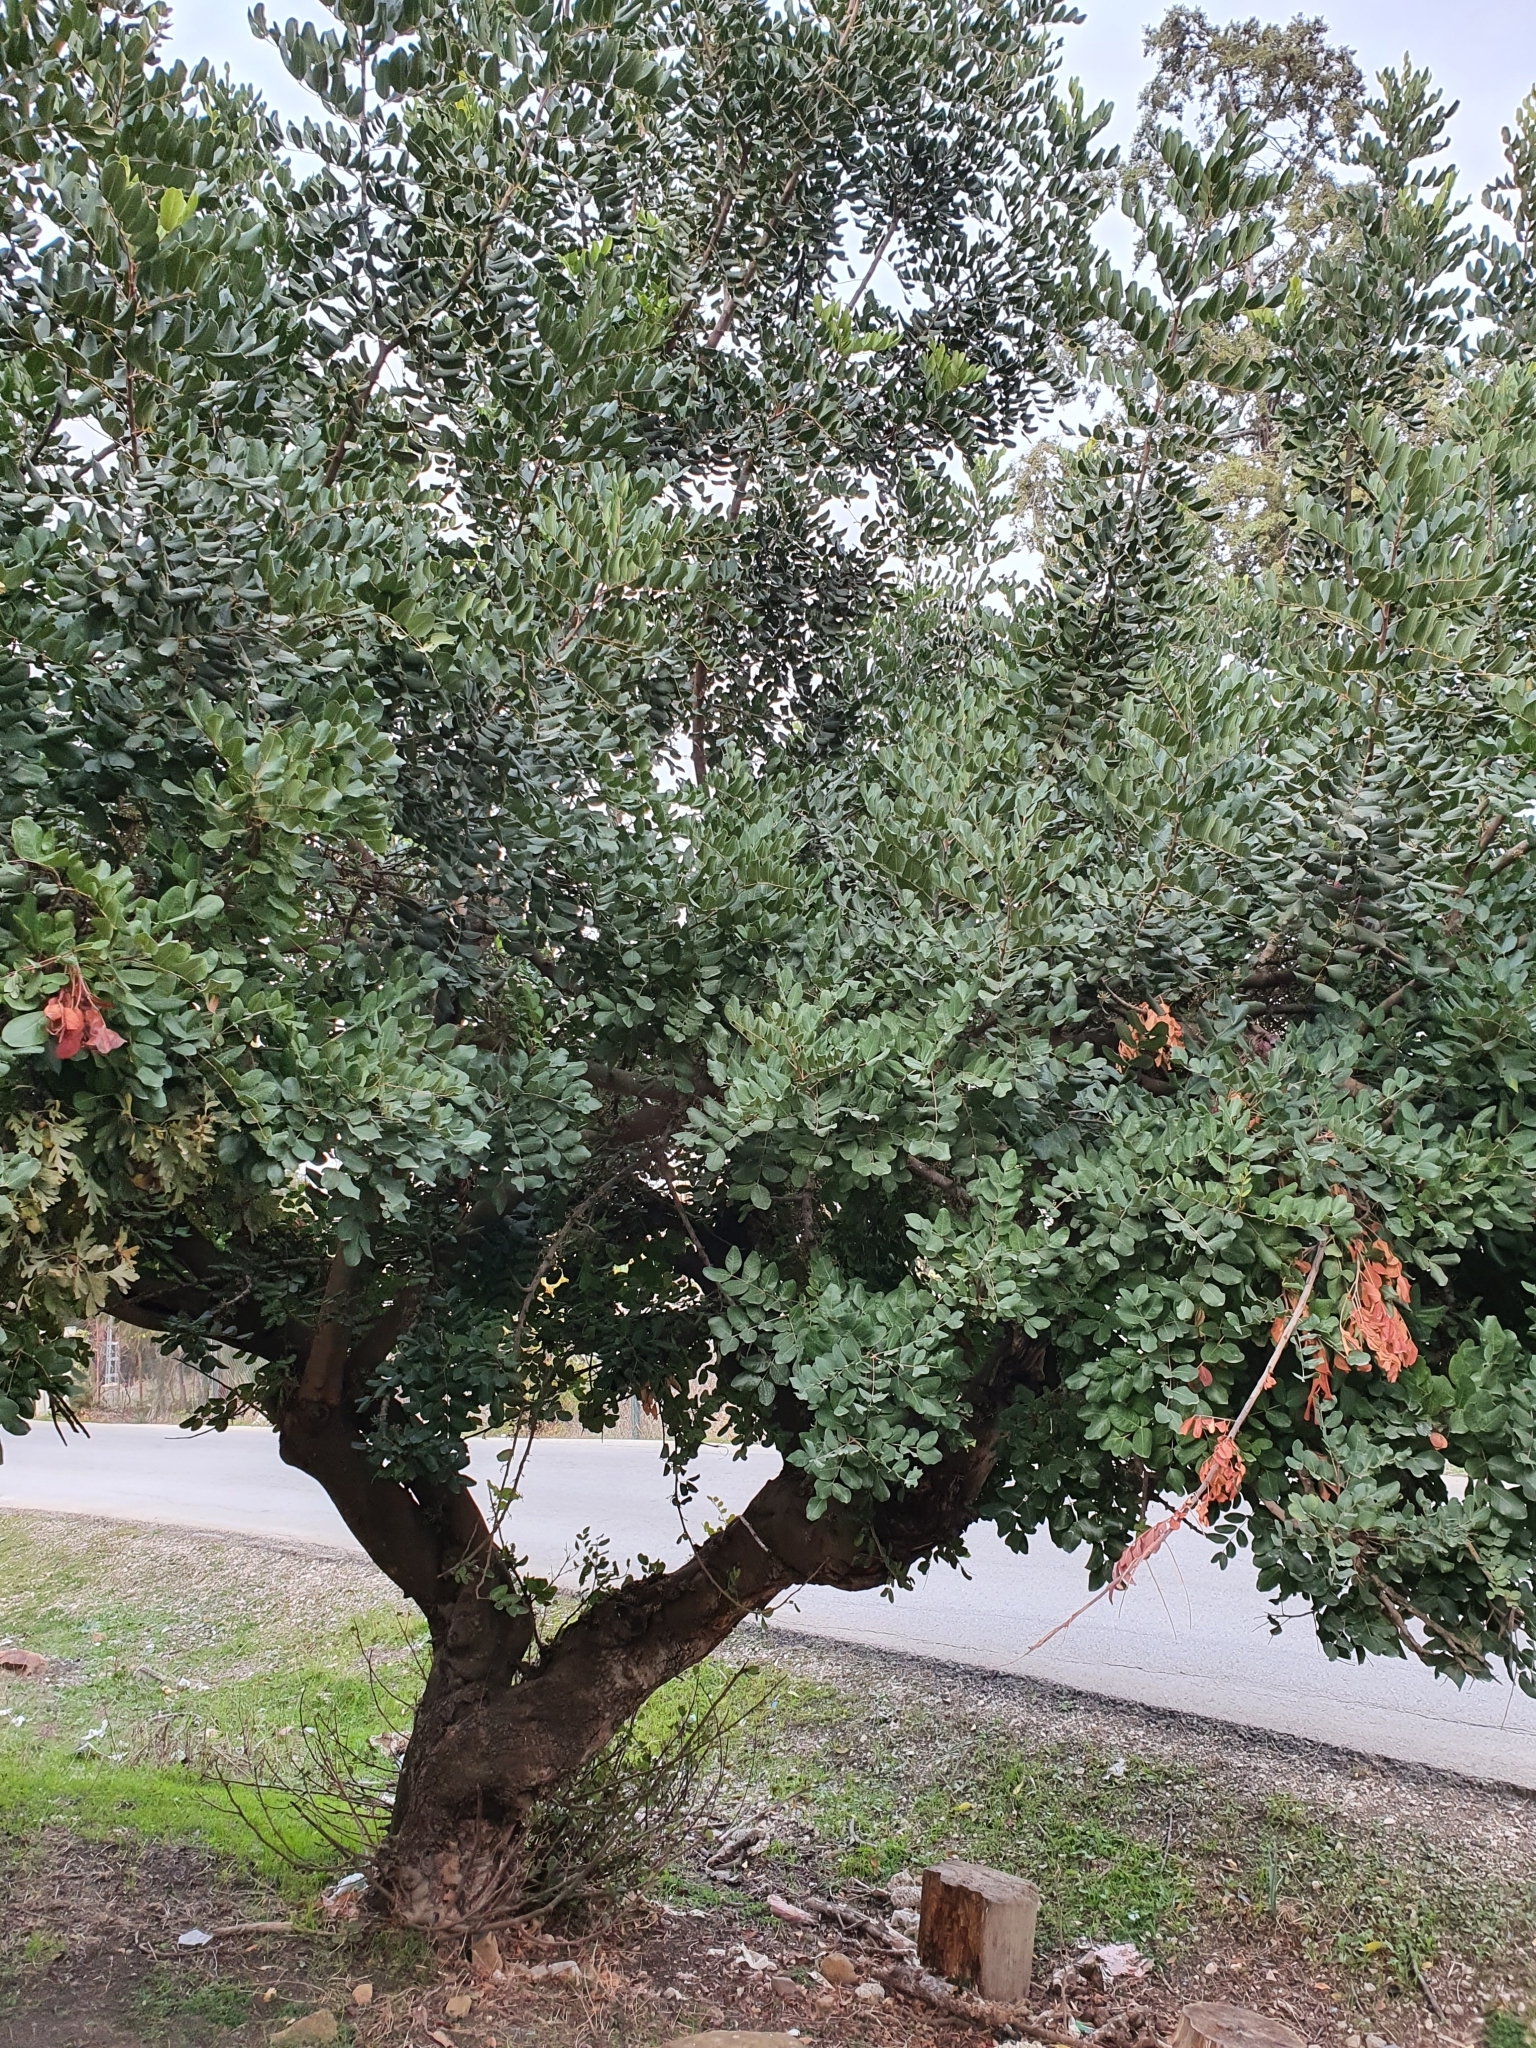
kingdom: Plantae
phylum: Tracheophyta
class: Magnoliopsida
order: Fabales
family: Fabaceae
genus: Ceratonia
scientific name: Ceratonia siliqua
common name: Carob
